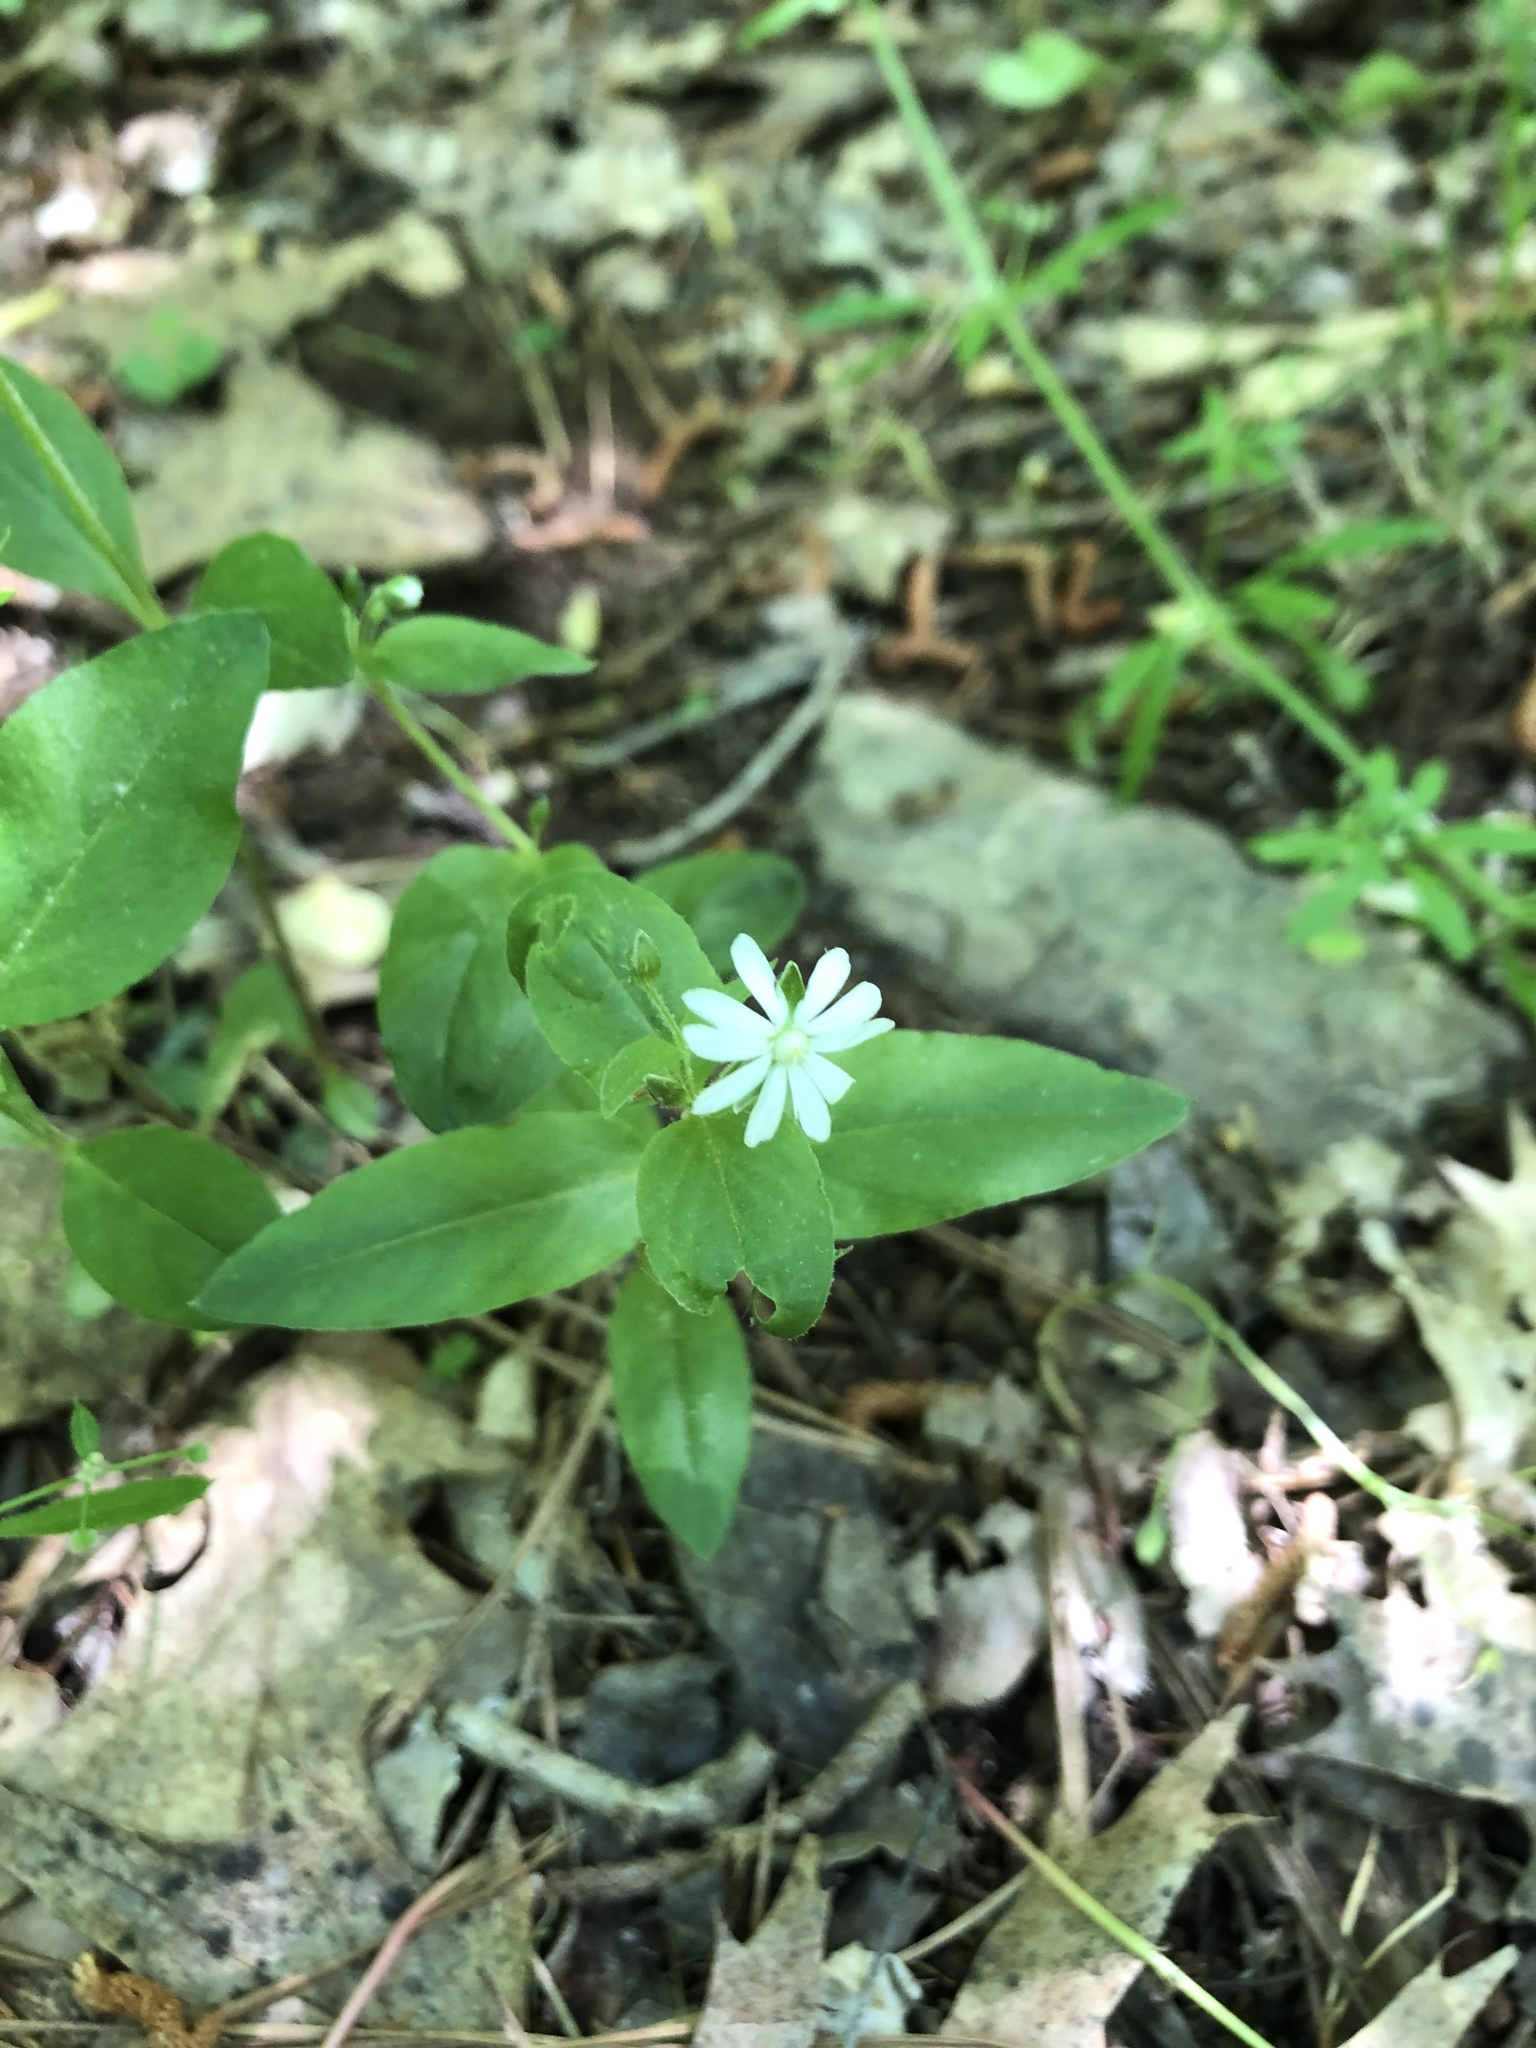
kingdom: Plantae
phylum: Tracheophyta
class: Magnoliopsida
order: Caryophyllales
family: Caryophyllaceae
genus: Stellaria
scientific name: Stellaria pubera
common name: Star chickweed
